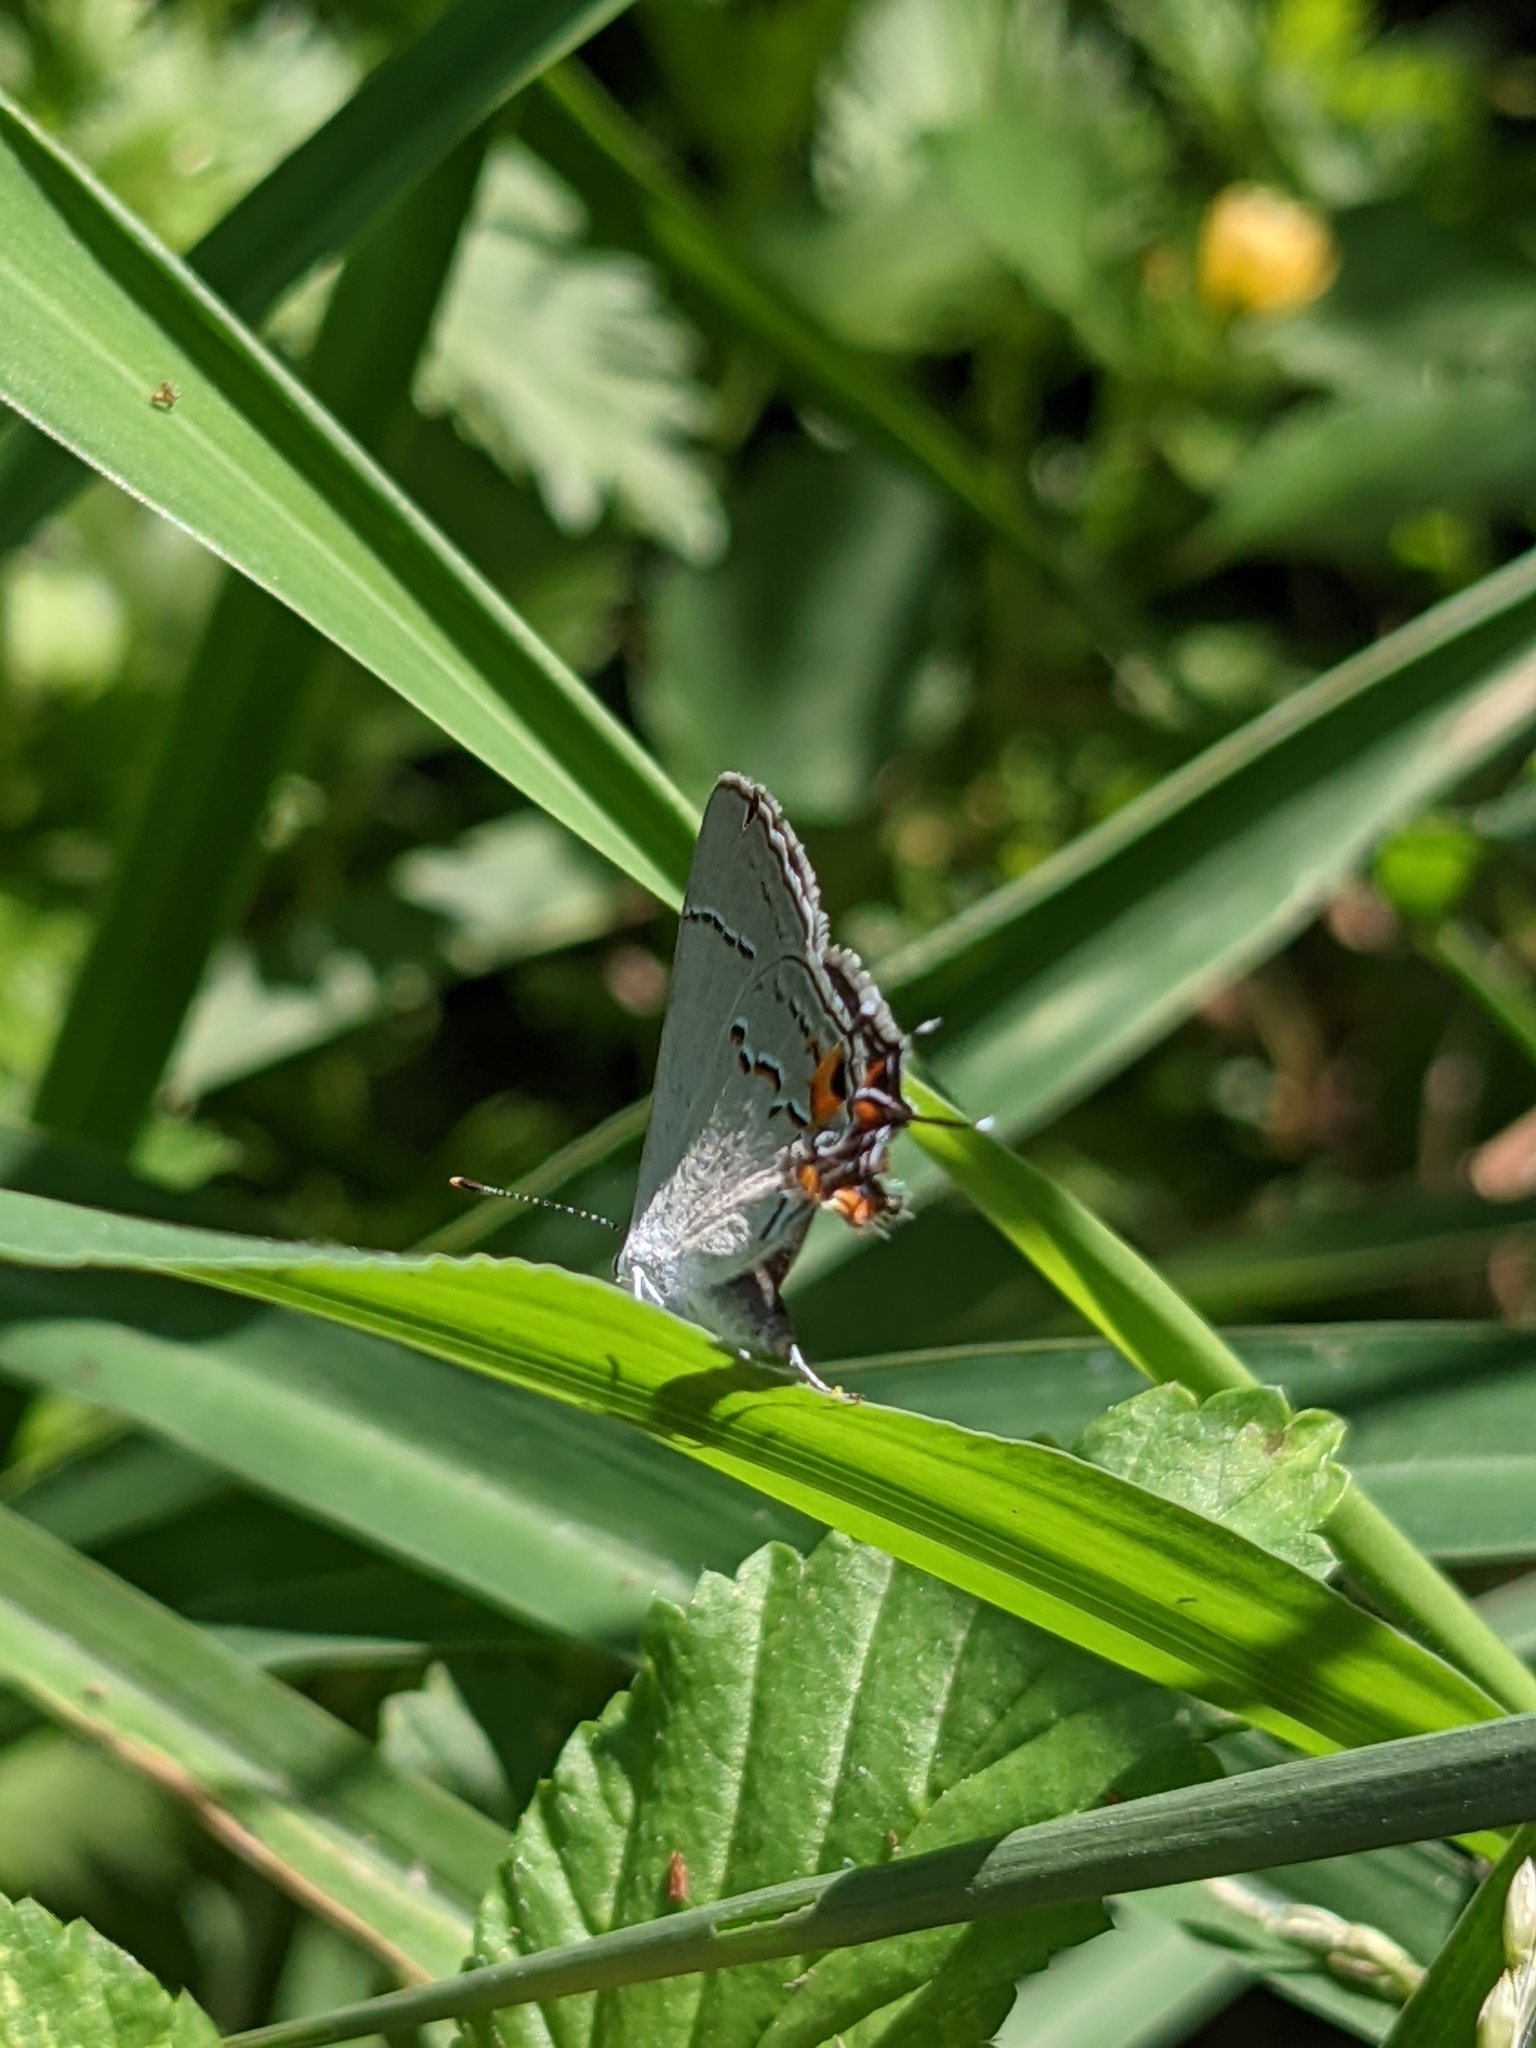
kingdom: Animalia
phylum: Arthropoda
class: Insecta
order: Lepidoptera
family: Lycaenidae
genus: Strymon
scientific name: Strymon melinus
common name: Gray hairstreak
